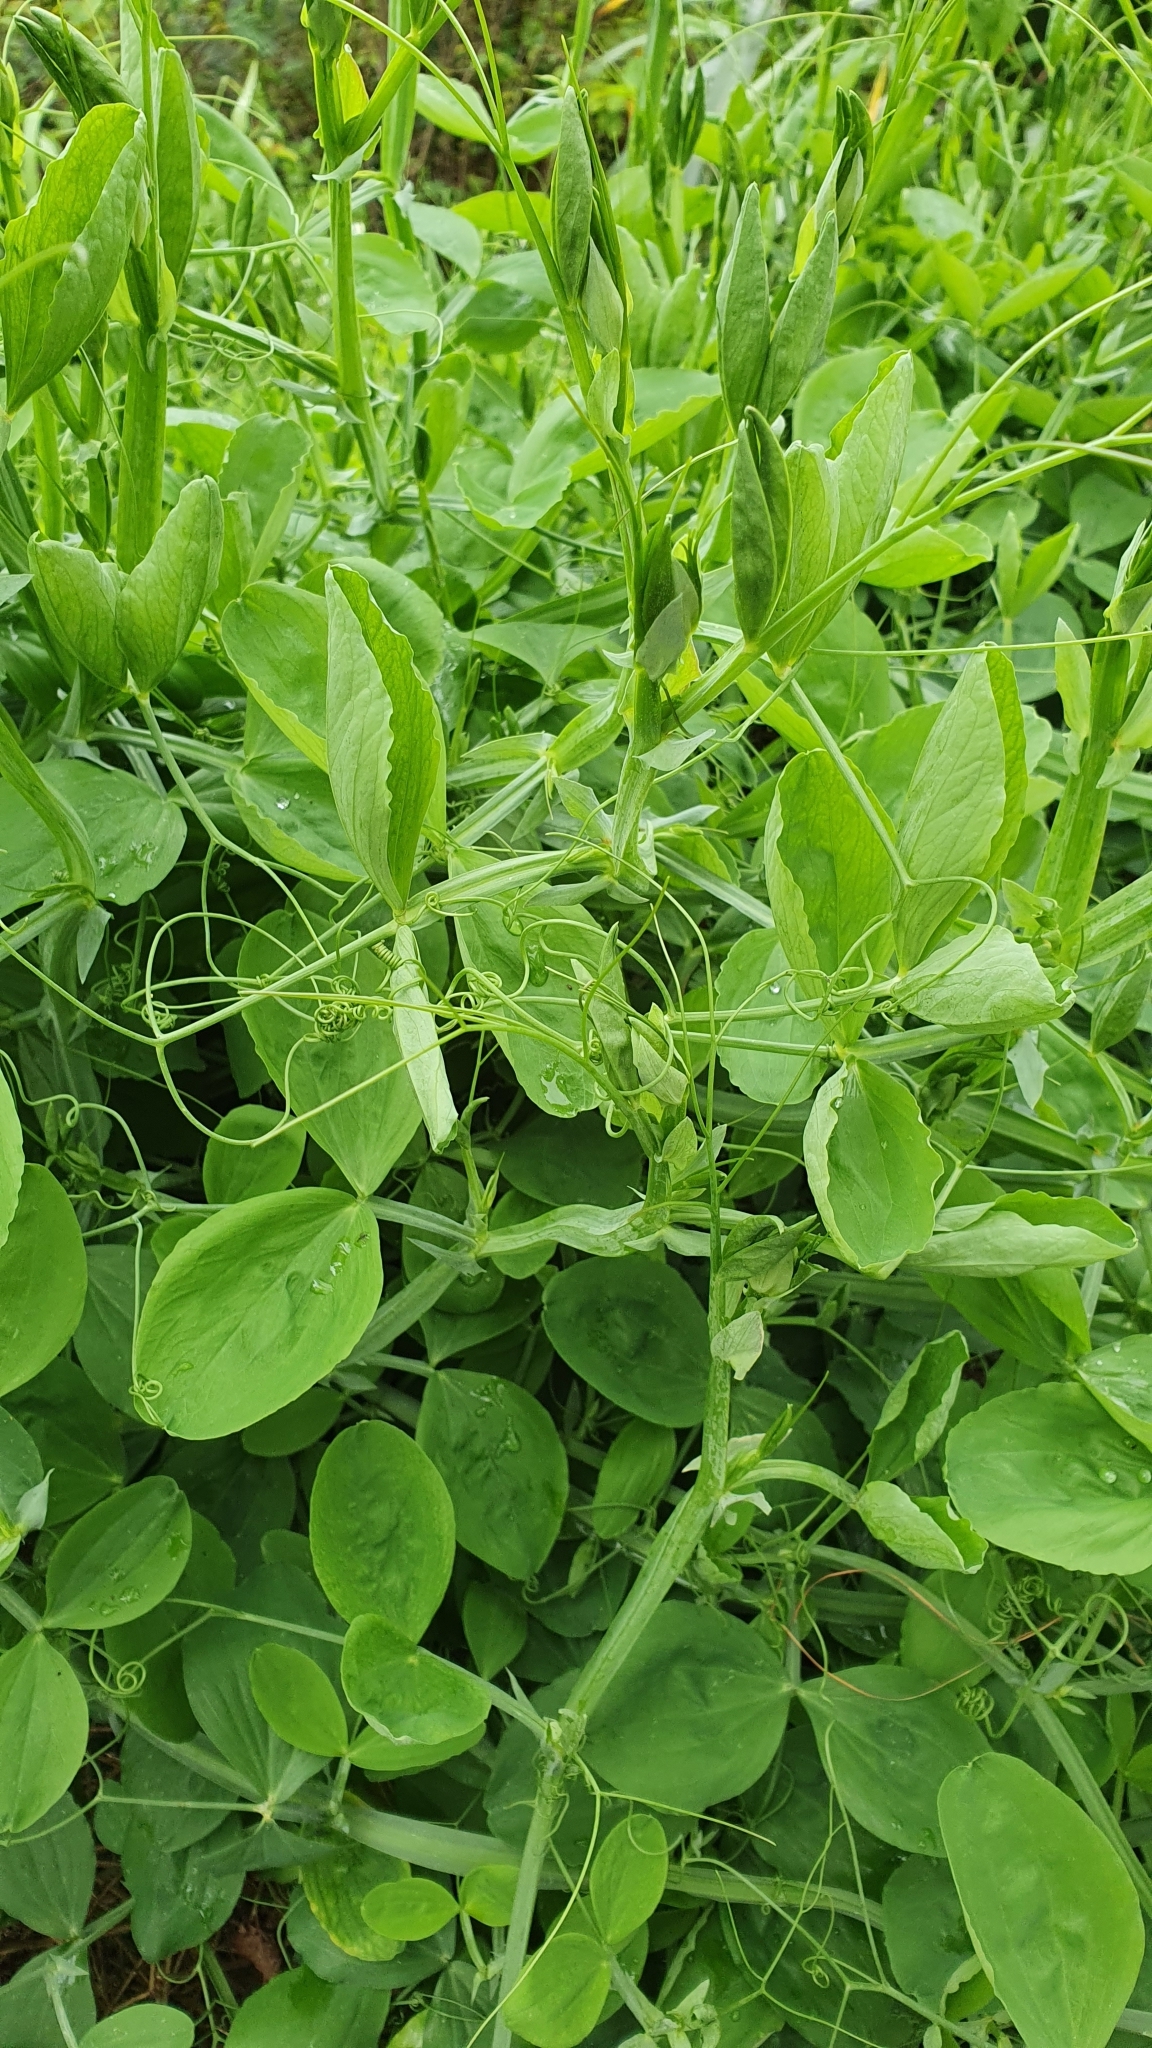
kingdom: Plantae
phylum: Tracheophyta
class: Magnoliopsida
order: Fabales
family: Fabaceae
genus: Lathyrus
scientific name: Lathyrus latifolius
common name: Perennial pea
